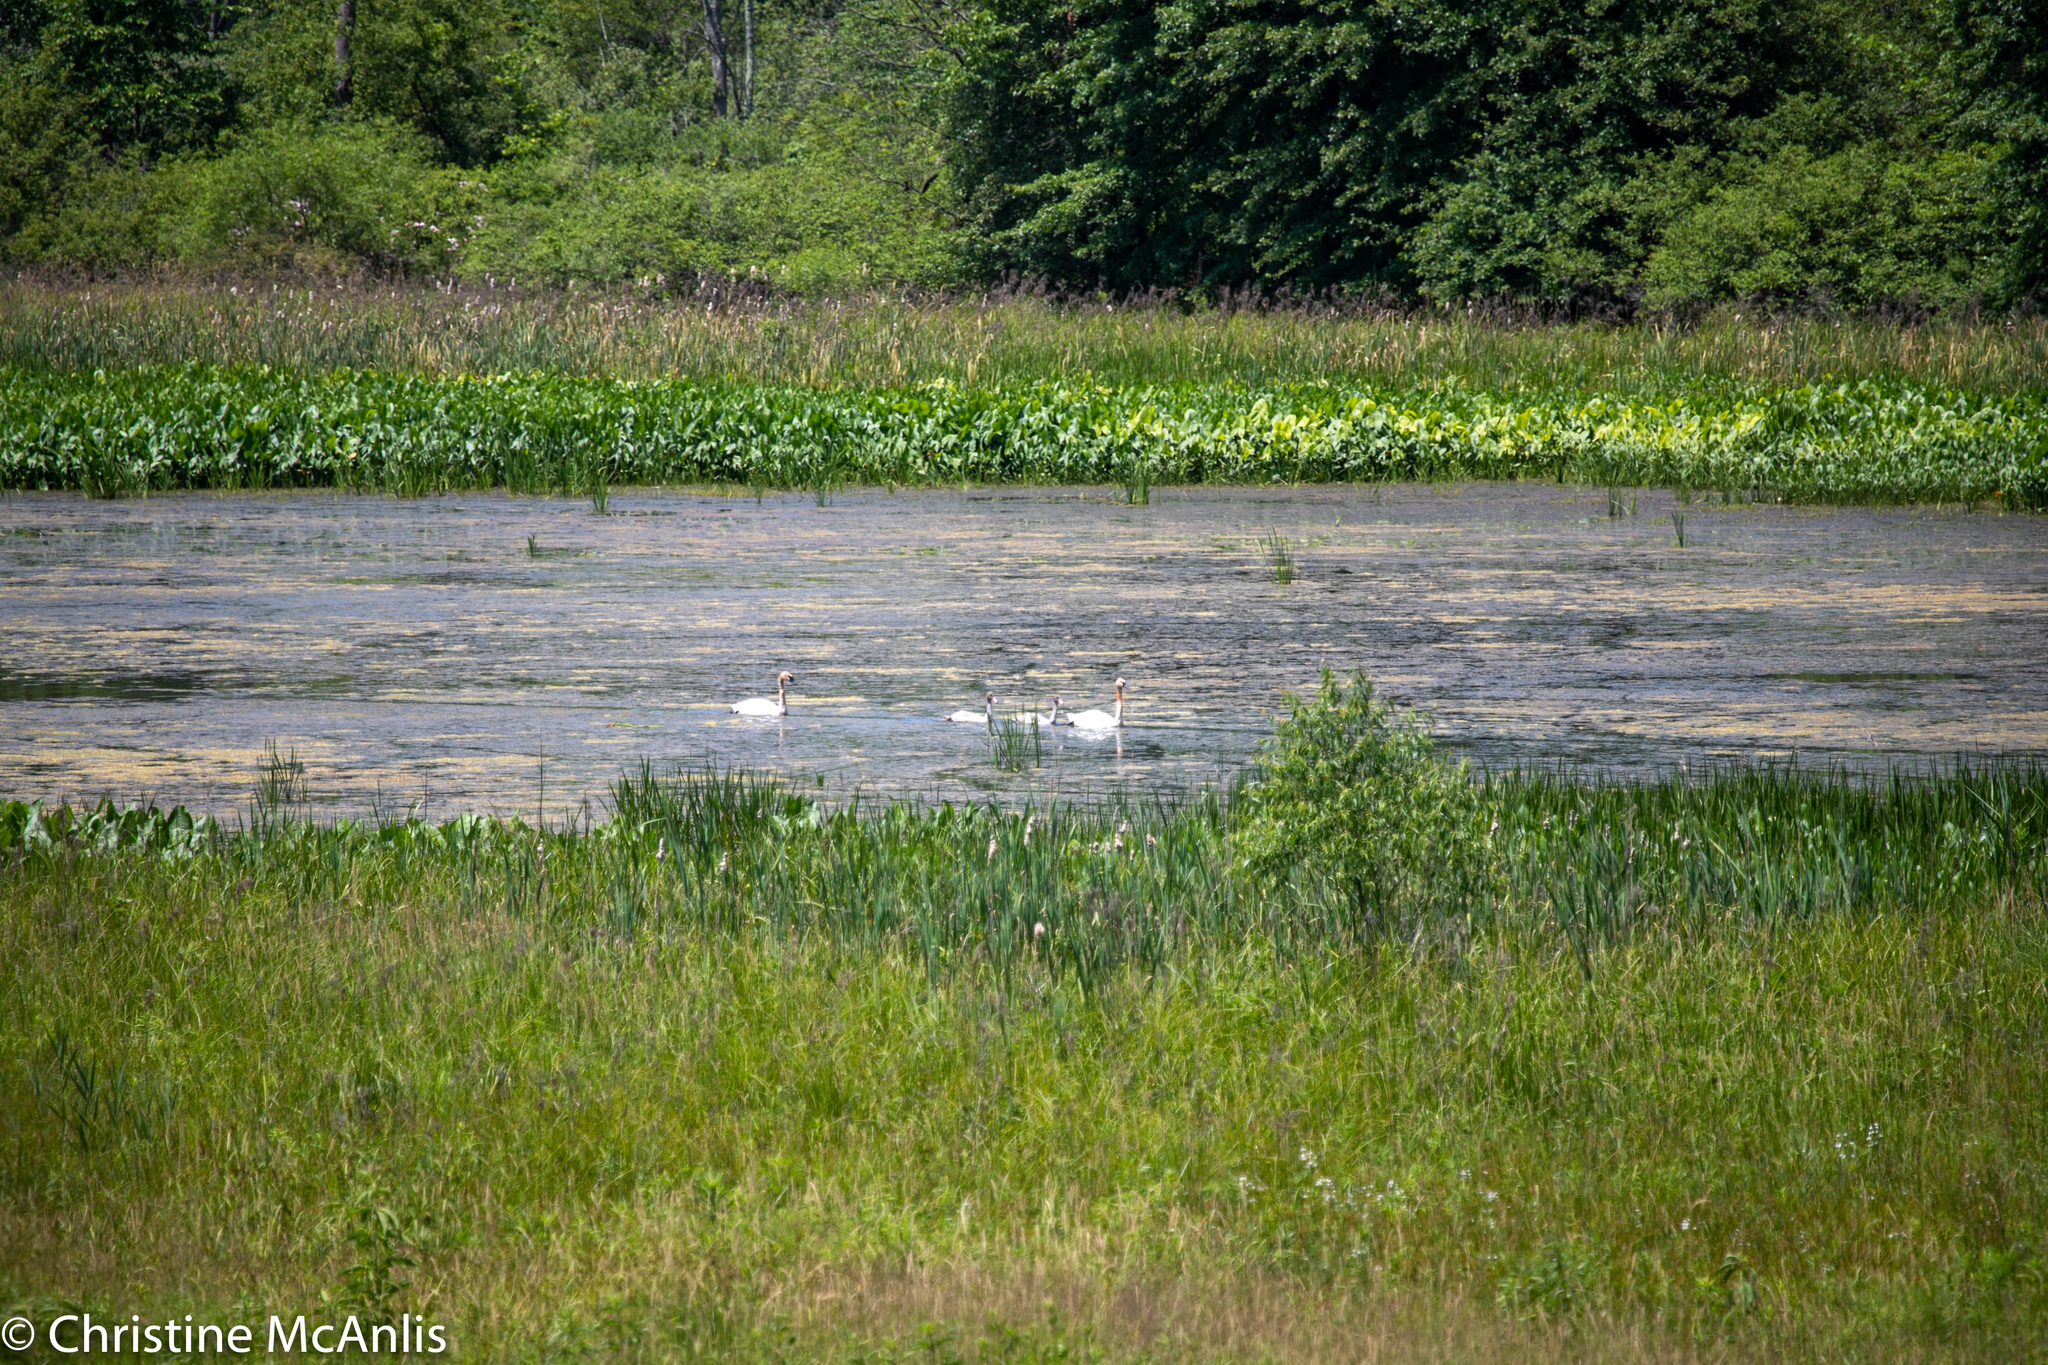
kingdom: Animalia
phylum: Chordata
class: Aves
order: Anseriformes
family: Anatidae
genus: Cygnus
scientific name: Cygnus buccinator
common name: Trumpeter swan
